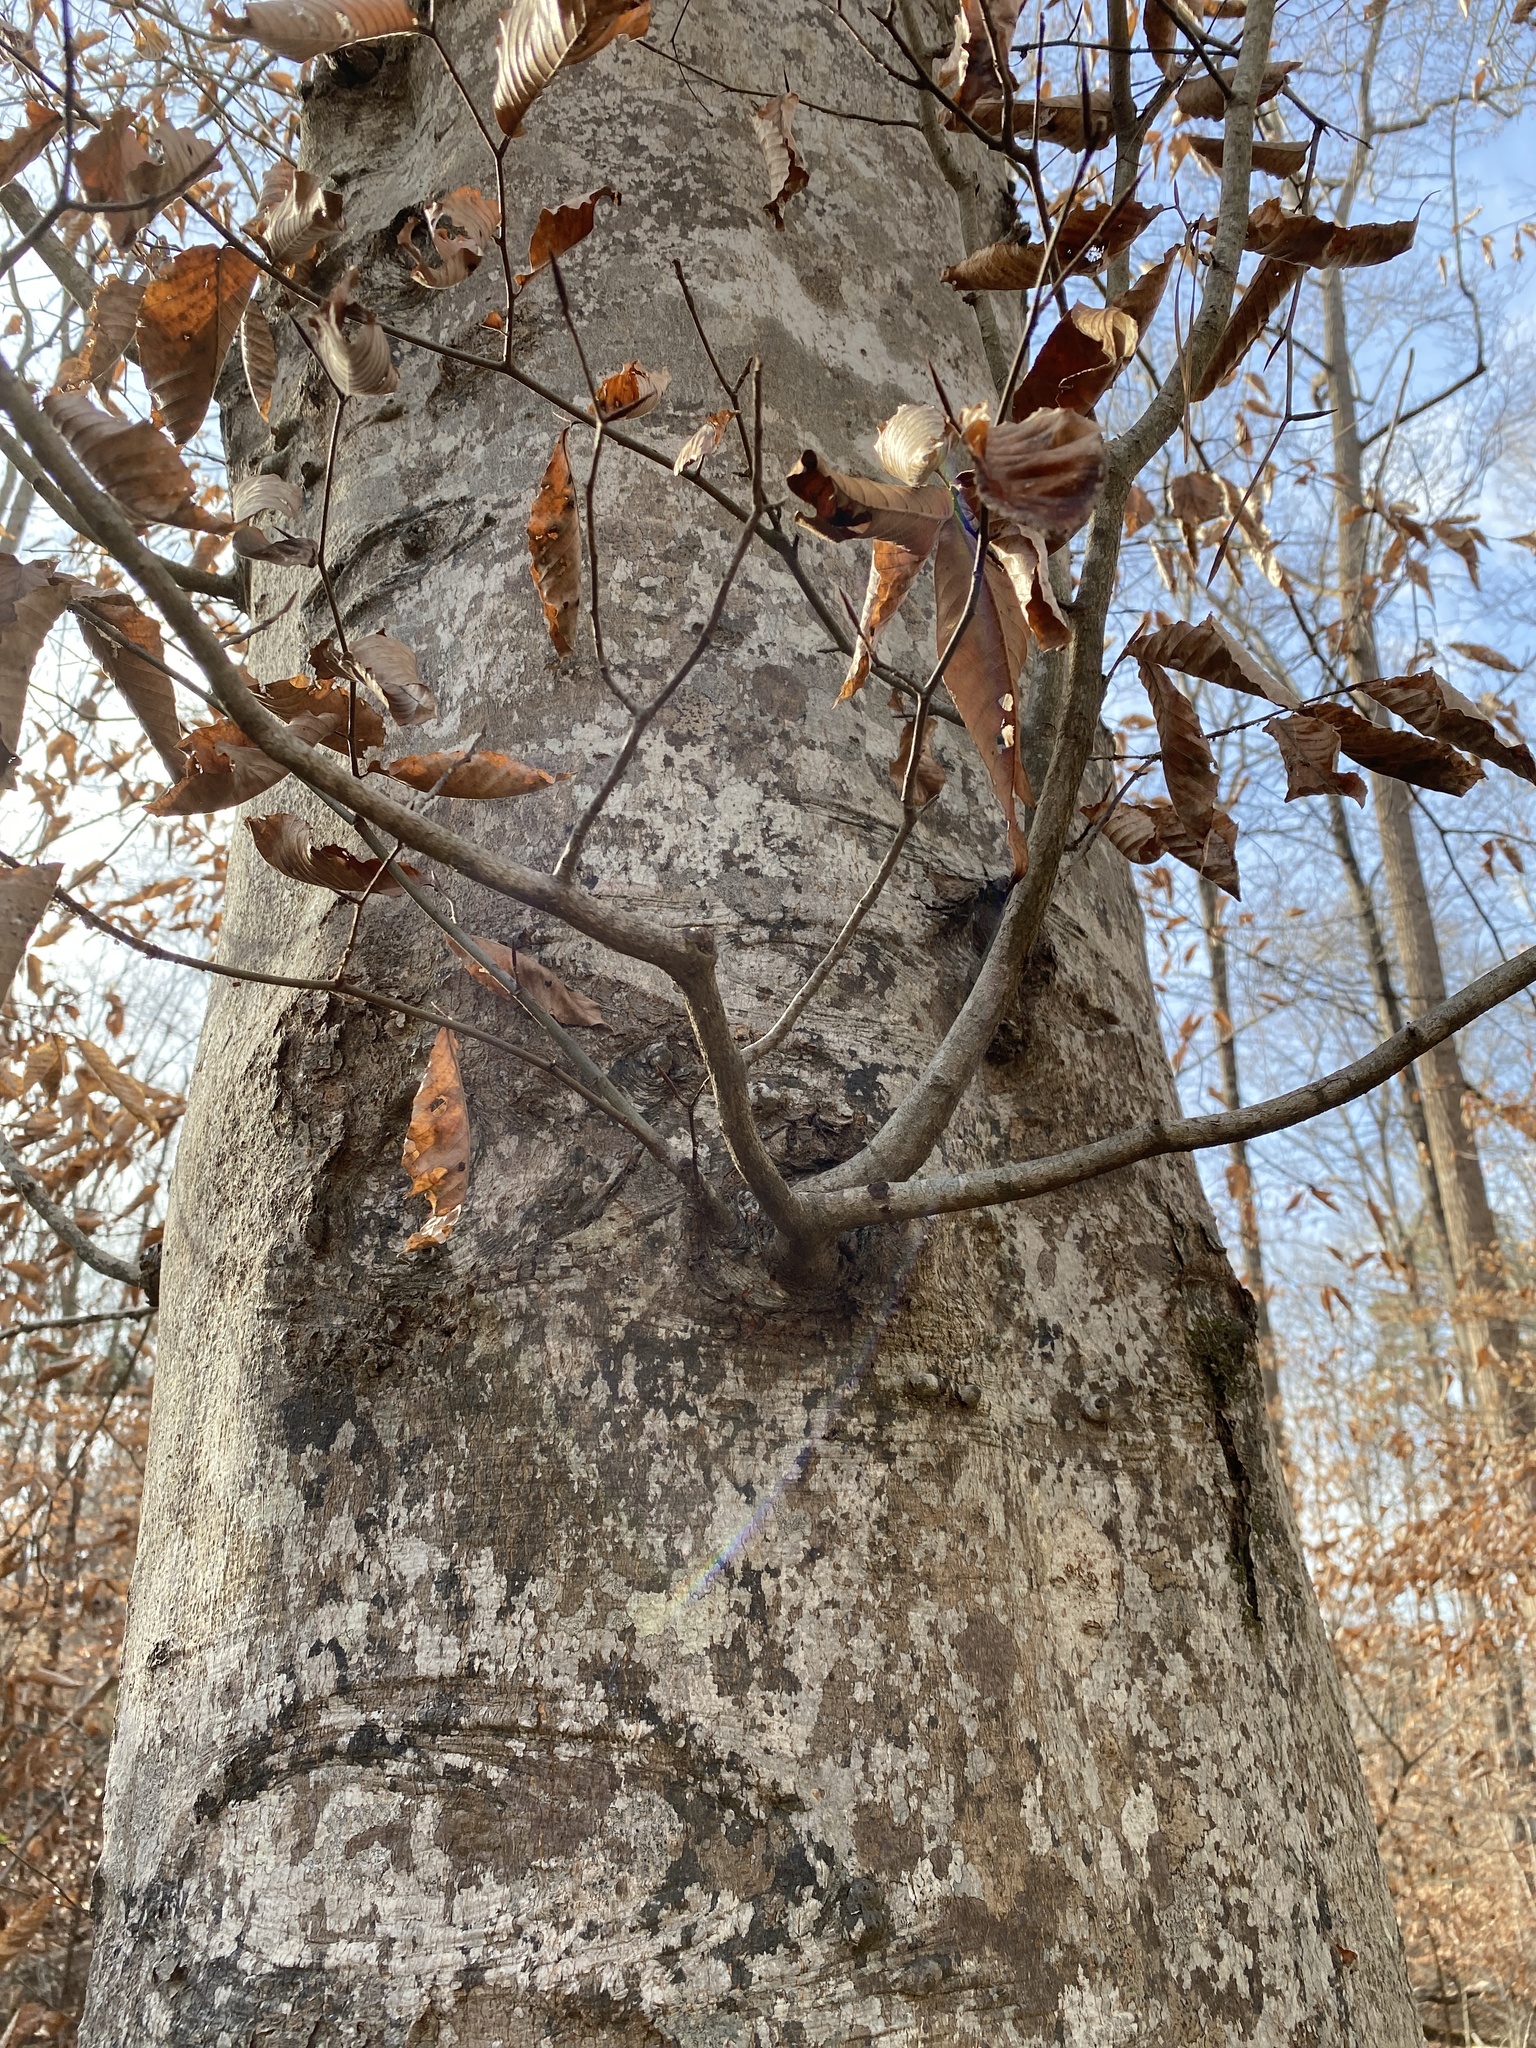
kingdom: Plantae
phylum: Tracheophyta
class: Magnoliopsida
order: Fagales
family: Fagaceae
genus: Fagus
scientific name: Fagus grandifolia
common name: American beech
